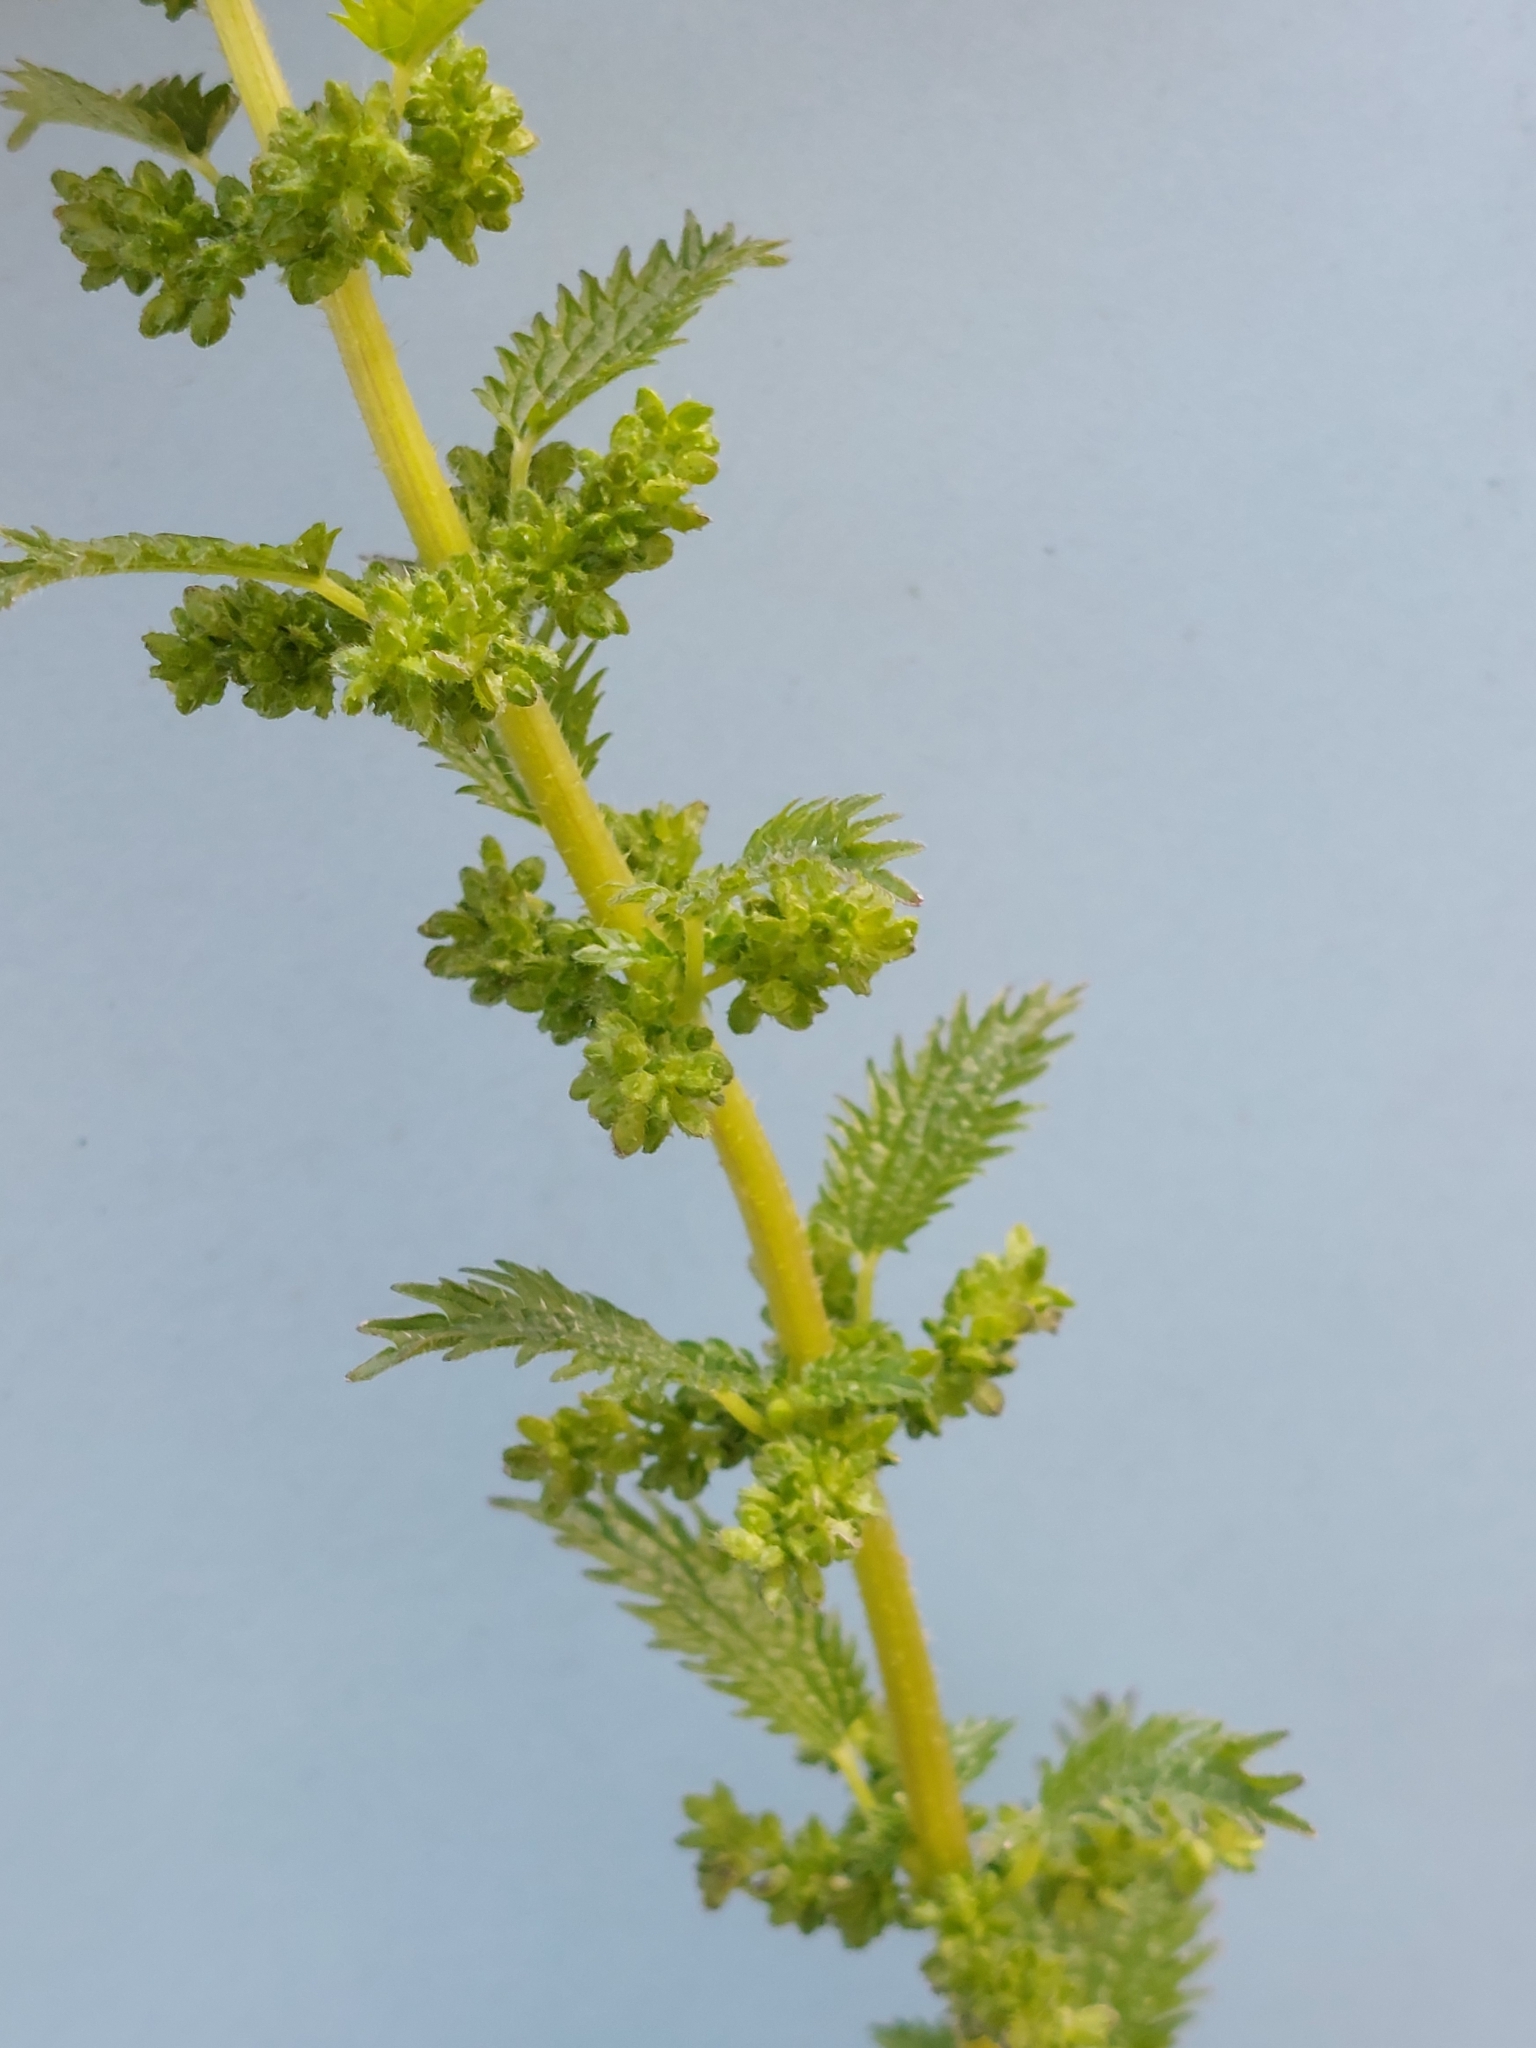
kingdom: Plantae
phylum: Tracheophyta
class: Magnoliopsida
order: Rosales
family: Urticaceae
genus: Urtica
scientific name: Urtica urens
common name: Dwarf nettle
